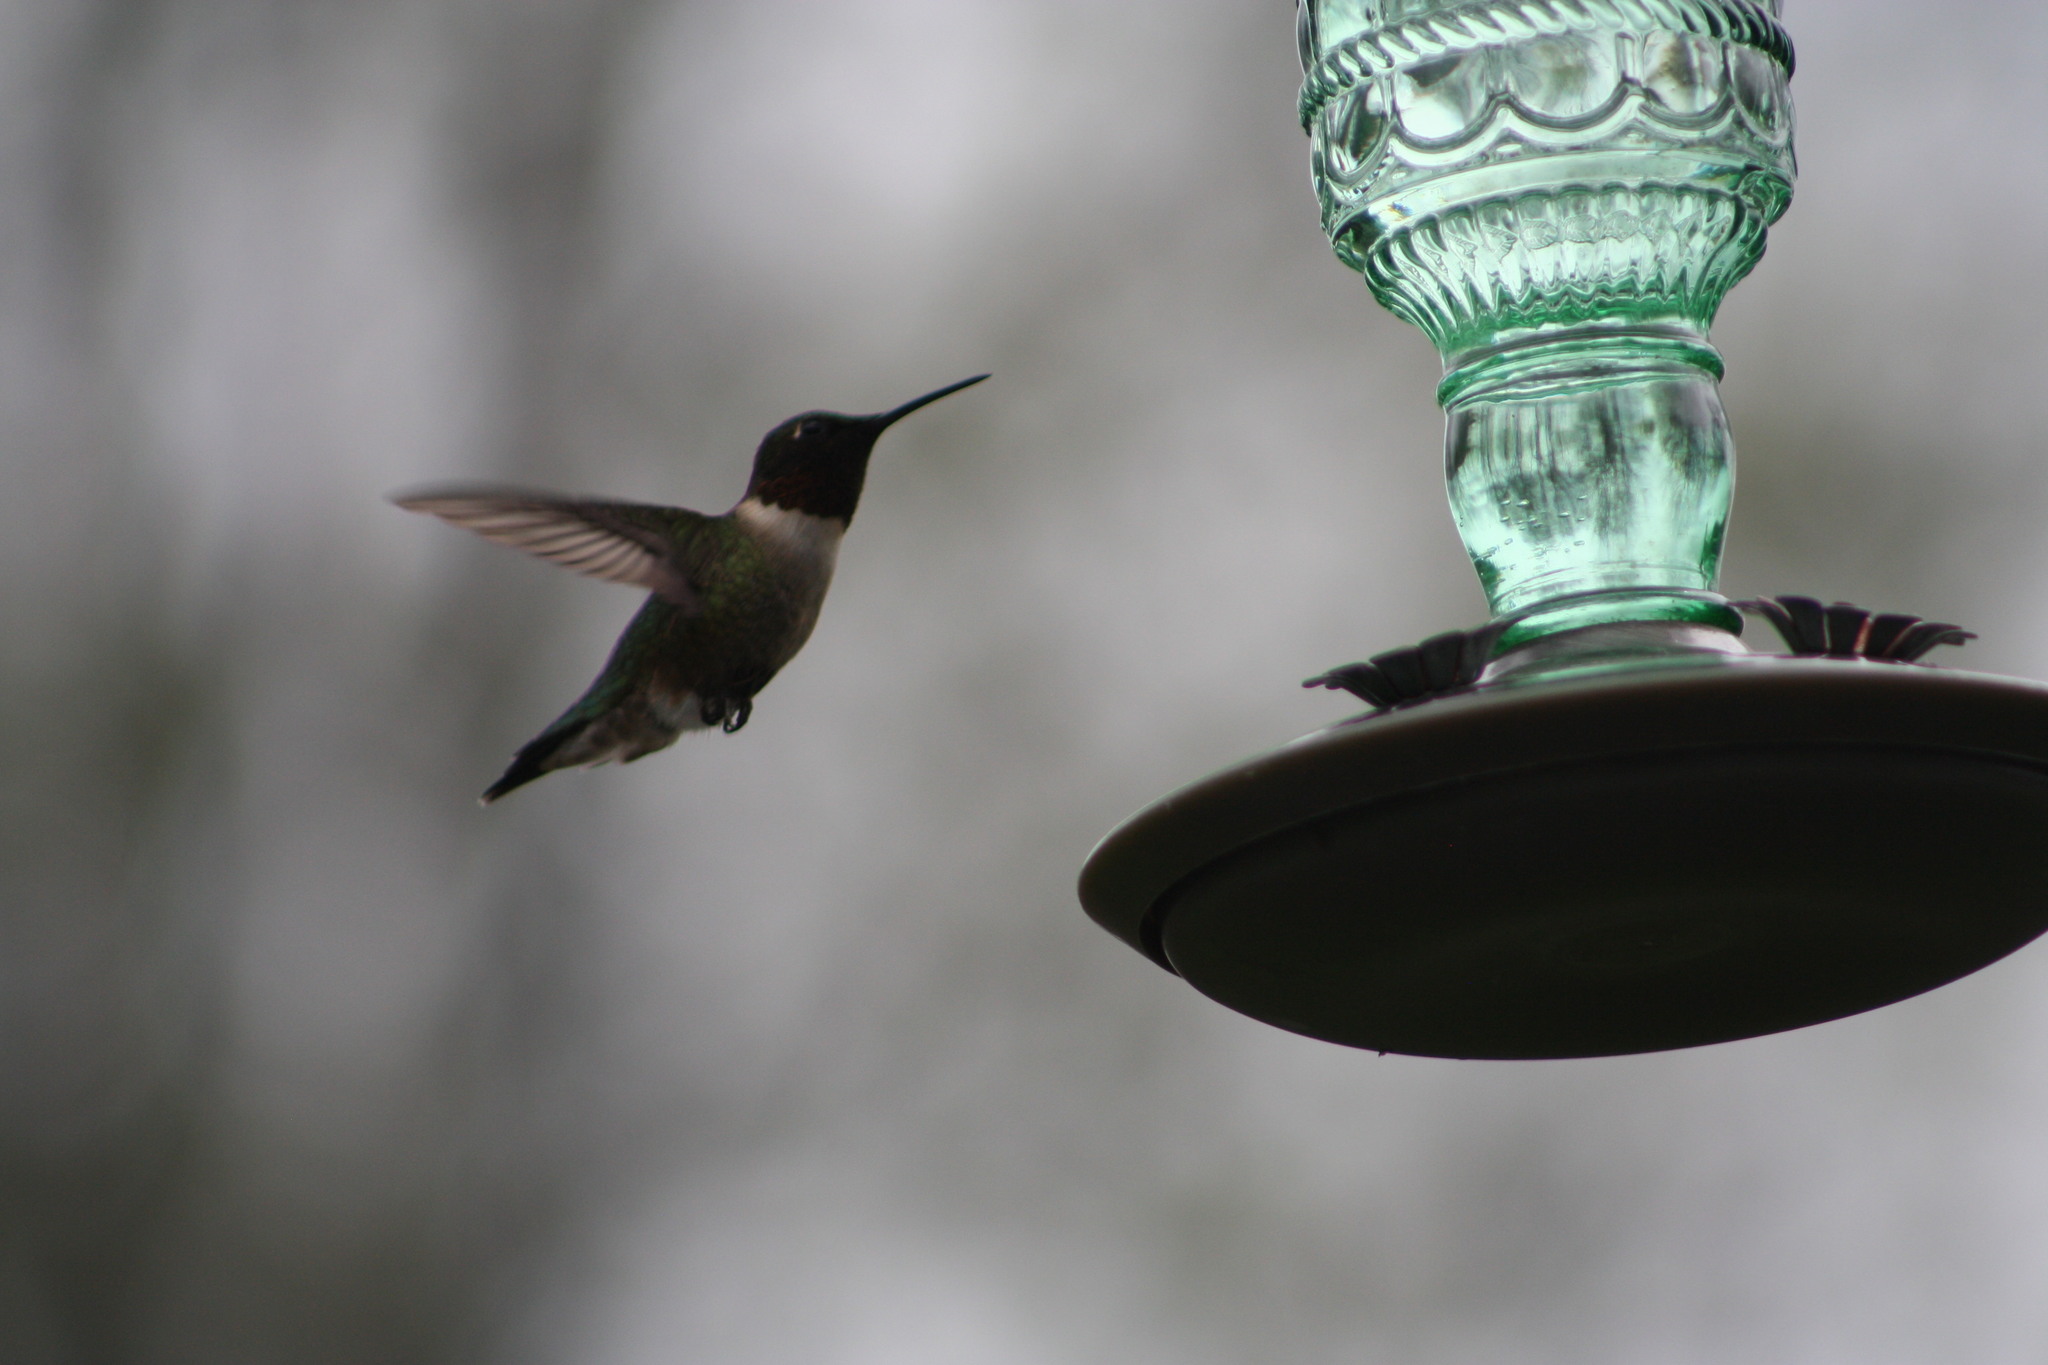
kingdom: Animalia
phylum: Chordata
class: Aves
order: Apodiformes
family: Trochilidae
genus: Archilochus
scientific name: Archilochus colubris
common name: Ruby-throated hummingbird
